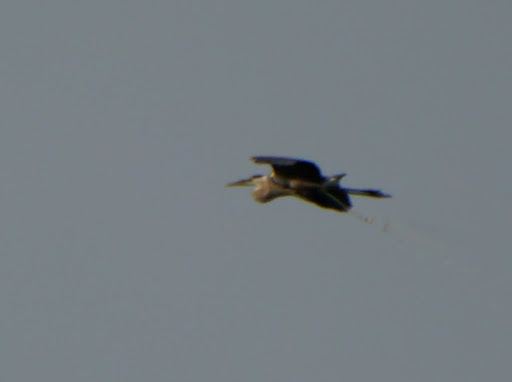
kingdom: Animalia
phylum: Chordata
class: Aves
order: Pelecaniformes
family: Ardeidae
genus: Ardea
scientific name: Ardea herodias
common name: Great blue heron
